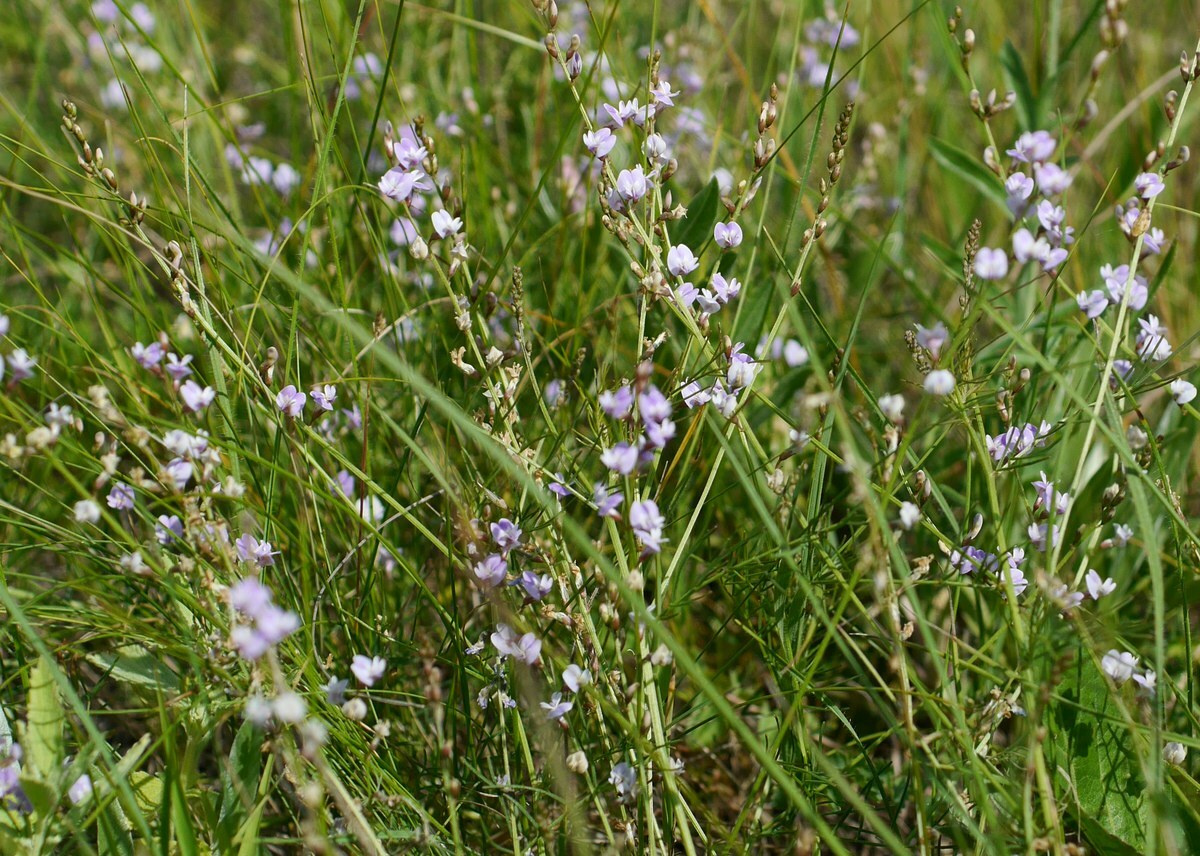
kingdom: Plantae
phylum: Tracheophyta
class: Magnoliopsida
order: Fabales
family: Fabaceae
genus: Astragalus
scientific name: Astragalus austriacus
